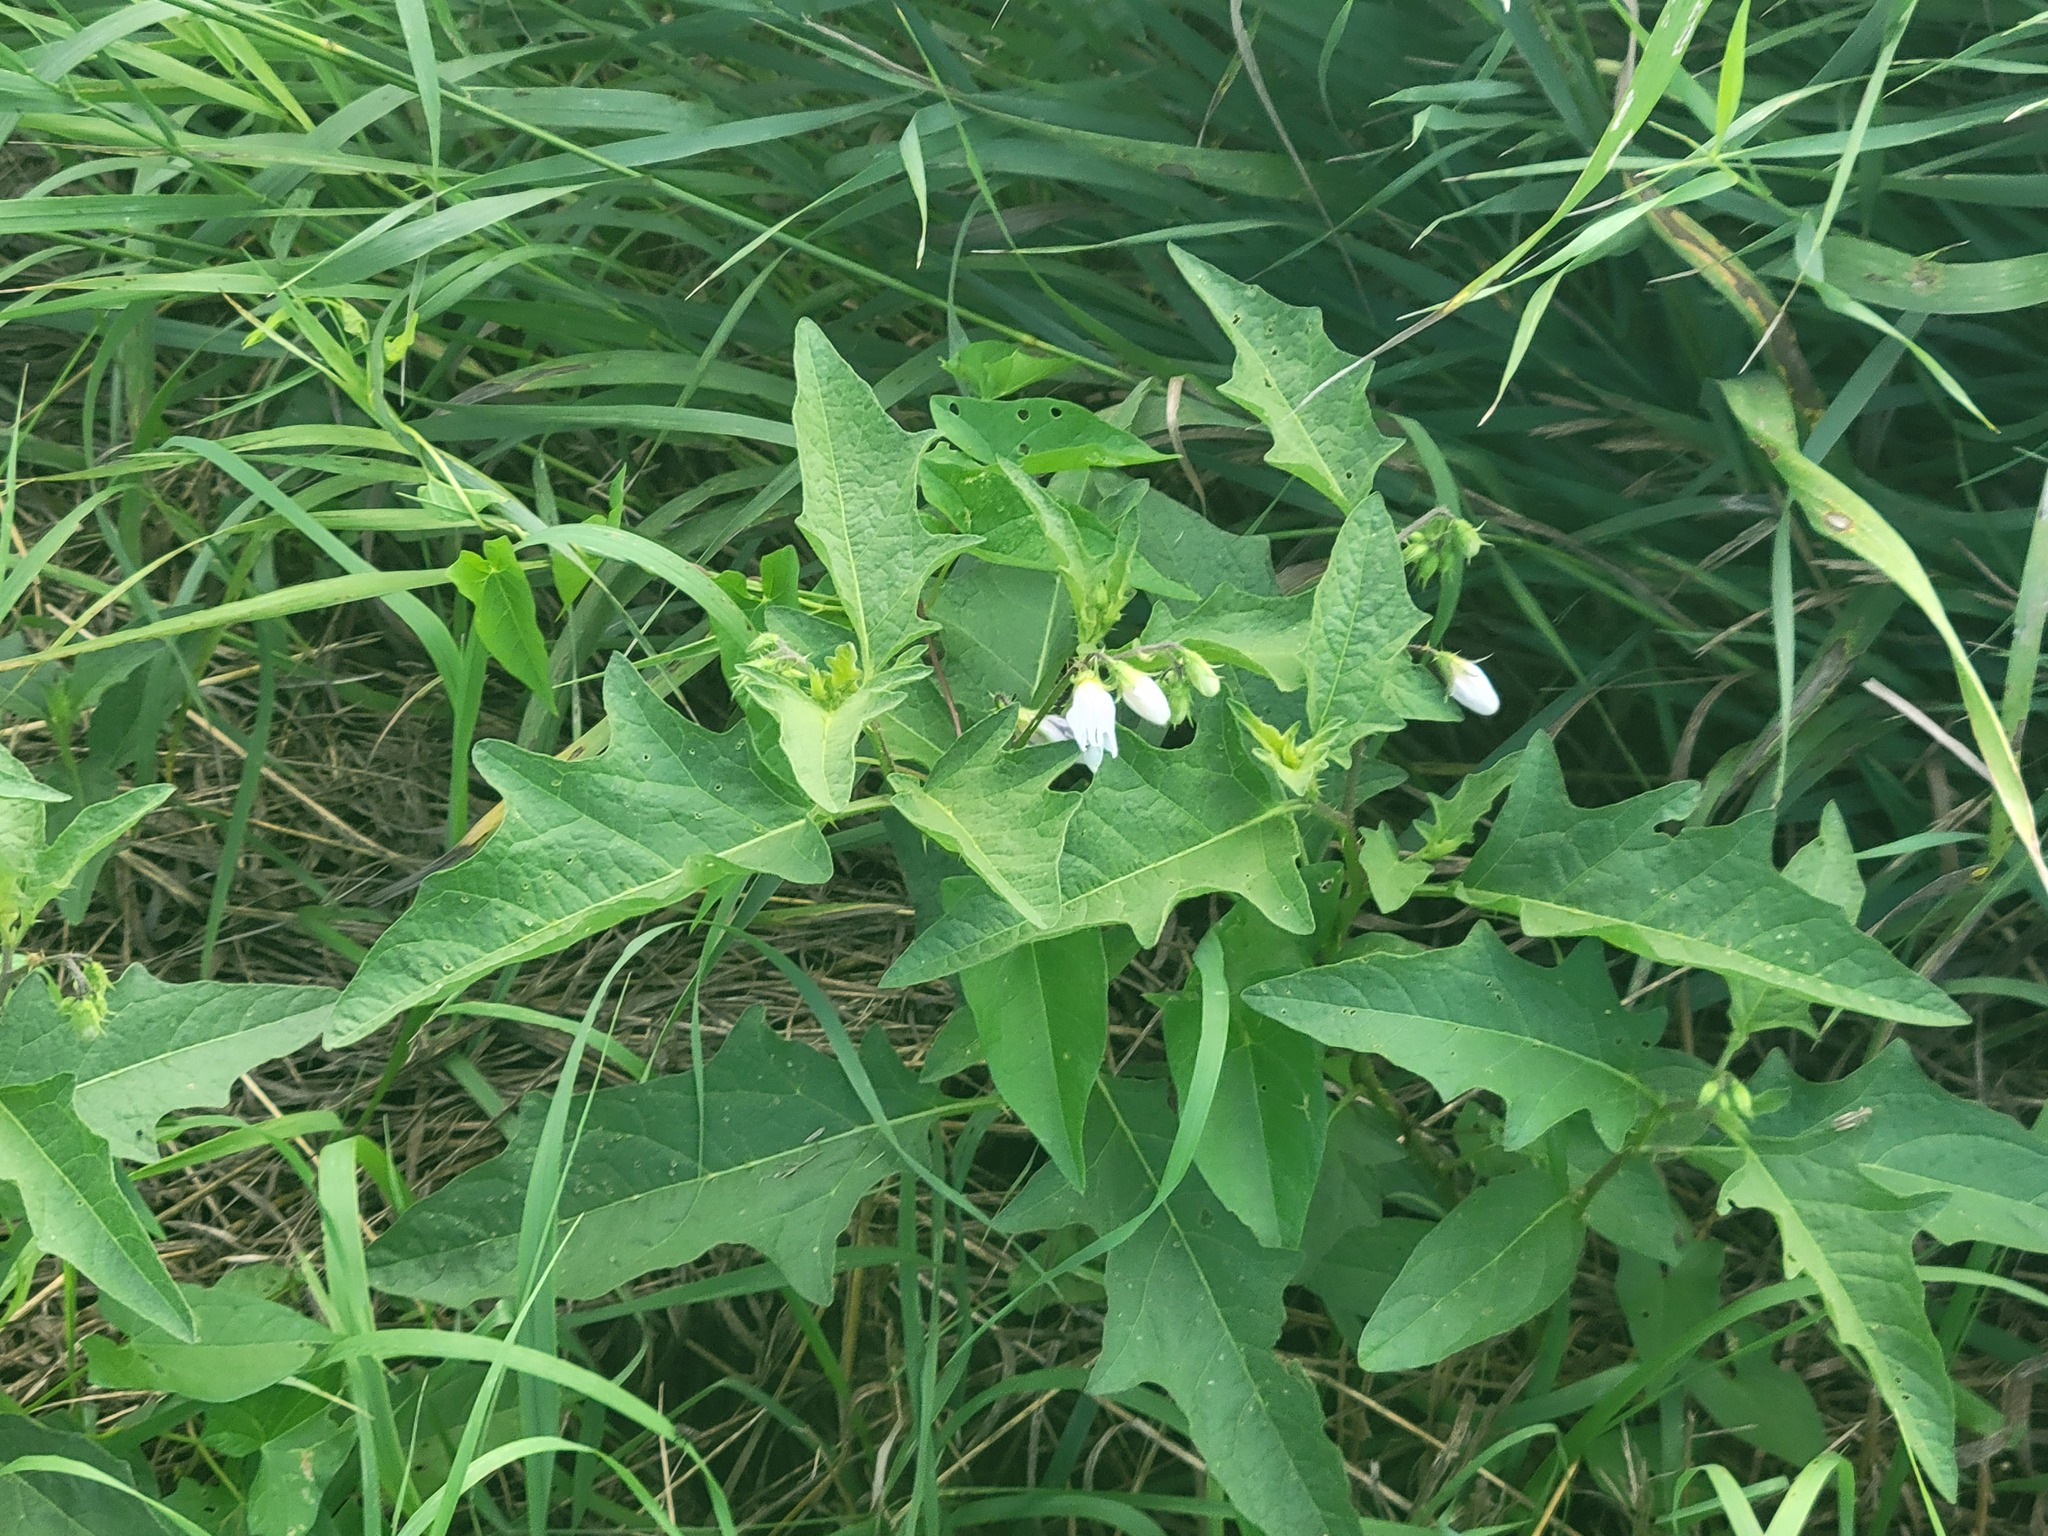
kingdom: Plantae
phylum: Tracheophyta
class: Magnoliopsida
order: Solanales
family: Solanaceae
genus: Solanum
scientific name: Solanum carolinense
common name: Horse-nettle
